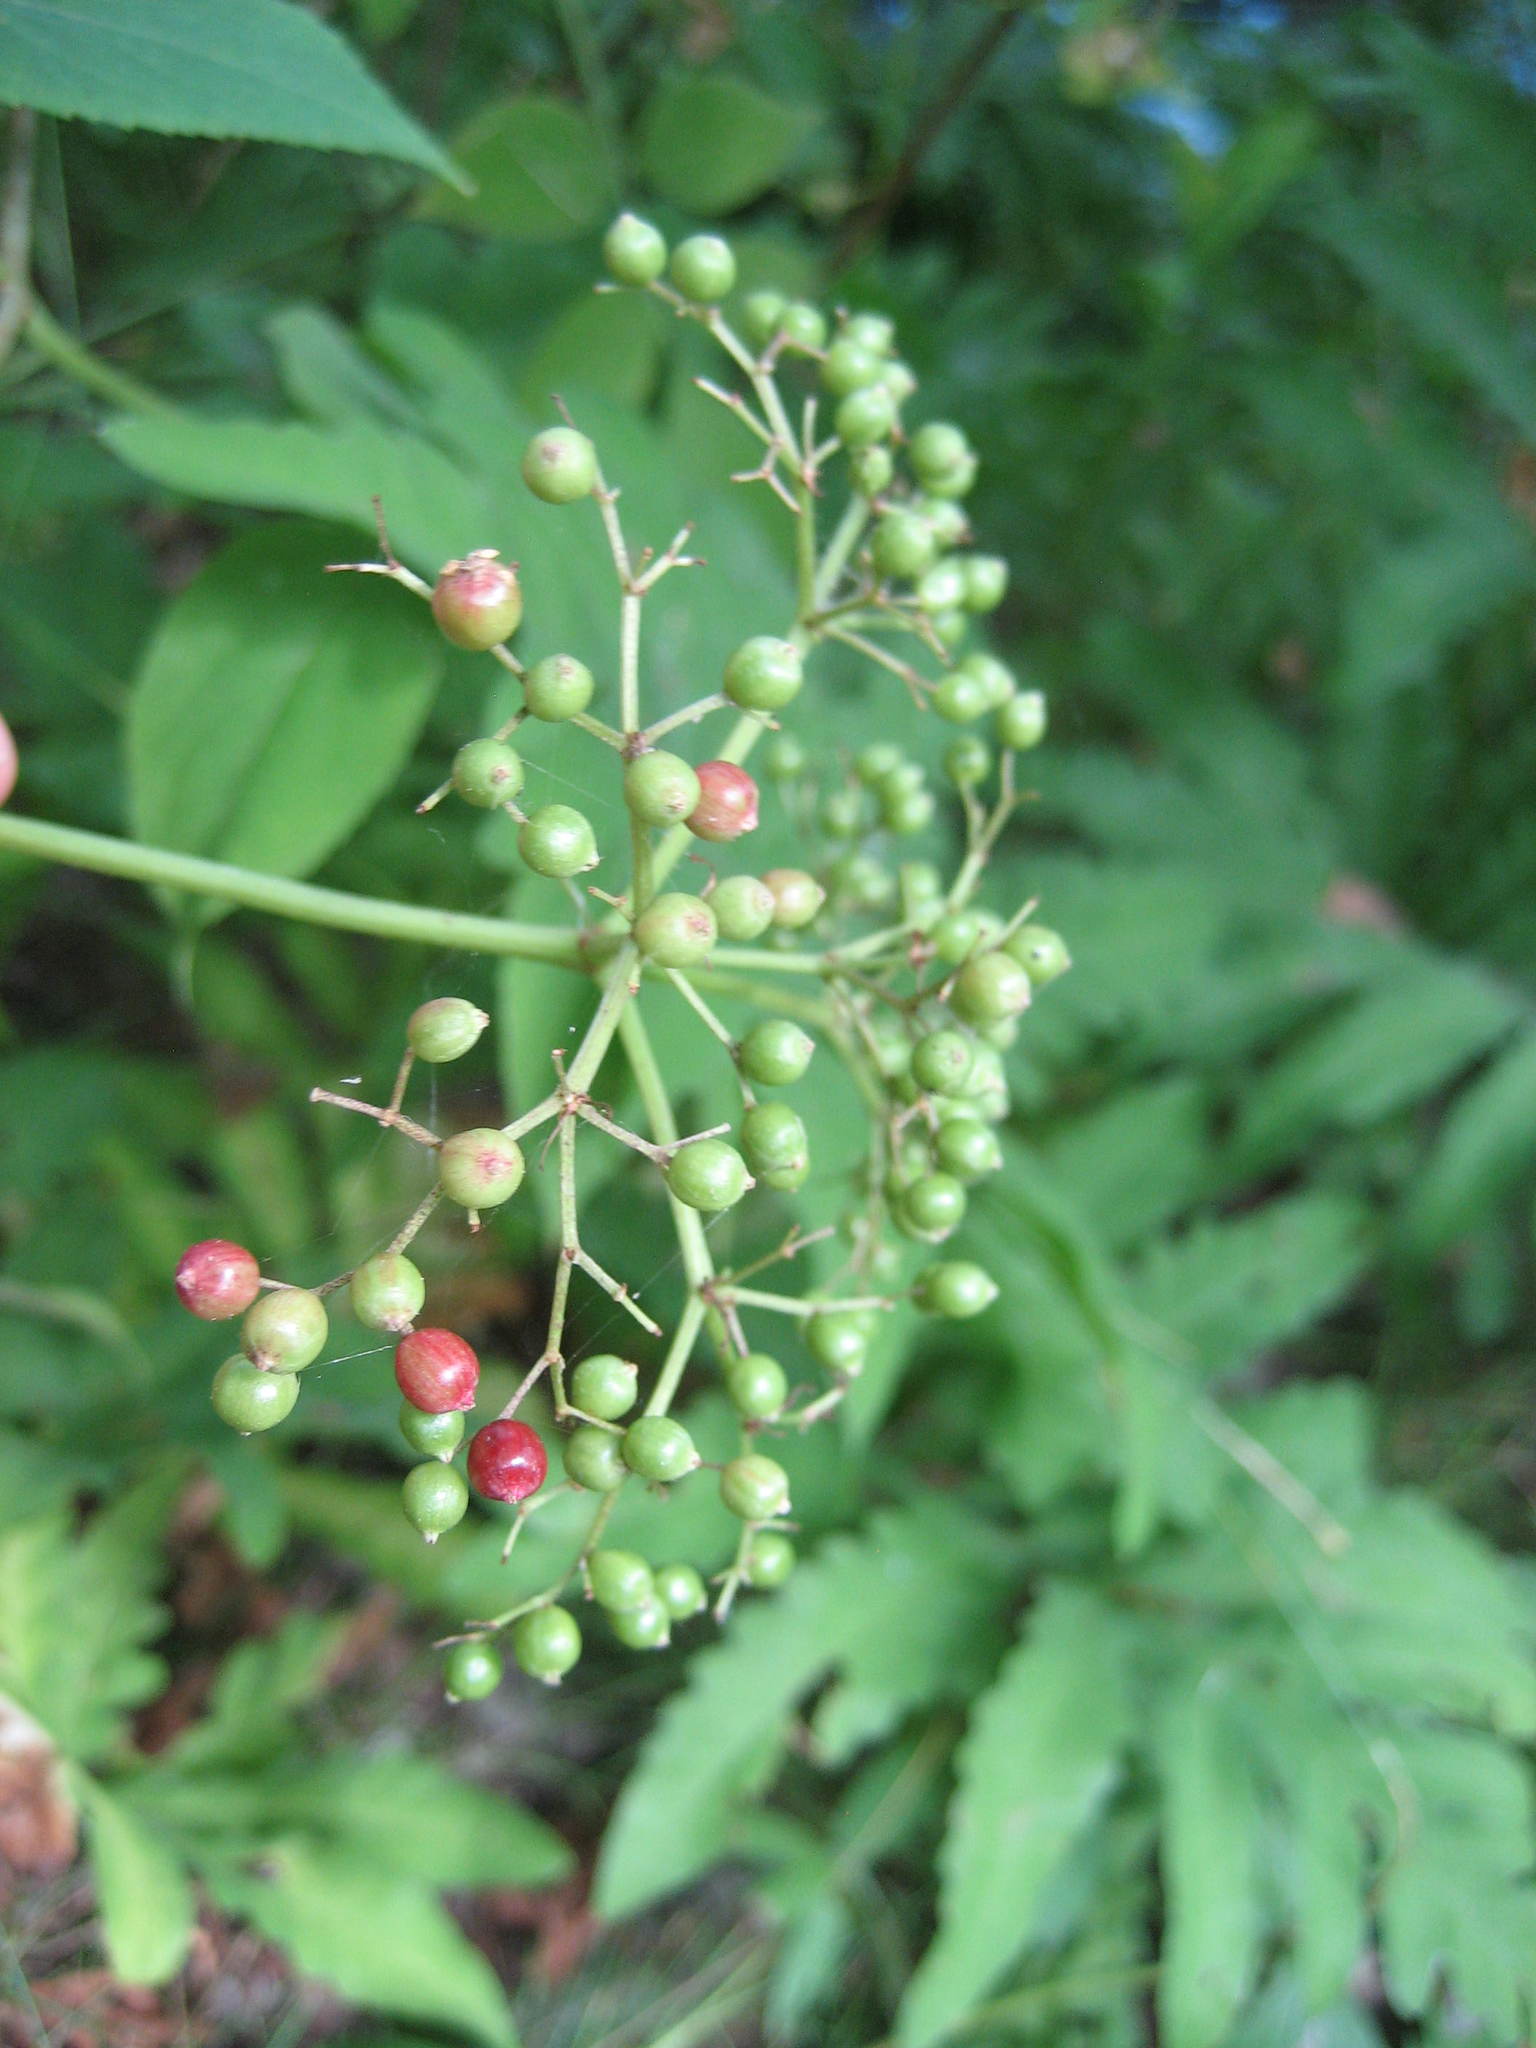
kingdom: Plantae
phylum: Tracheophyta
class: Magnoliopsida
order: Dipsacales
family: Viburnaceae
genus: Sambucus
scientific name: Sambucus canadensis
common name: American elder
